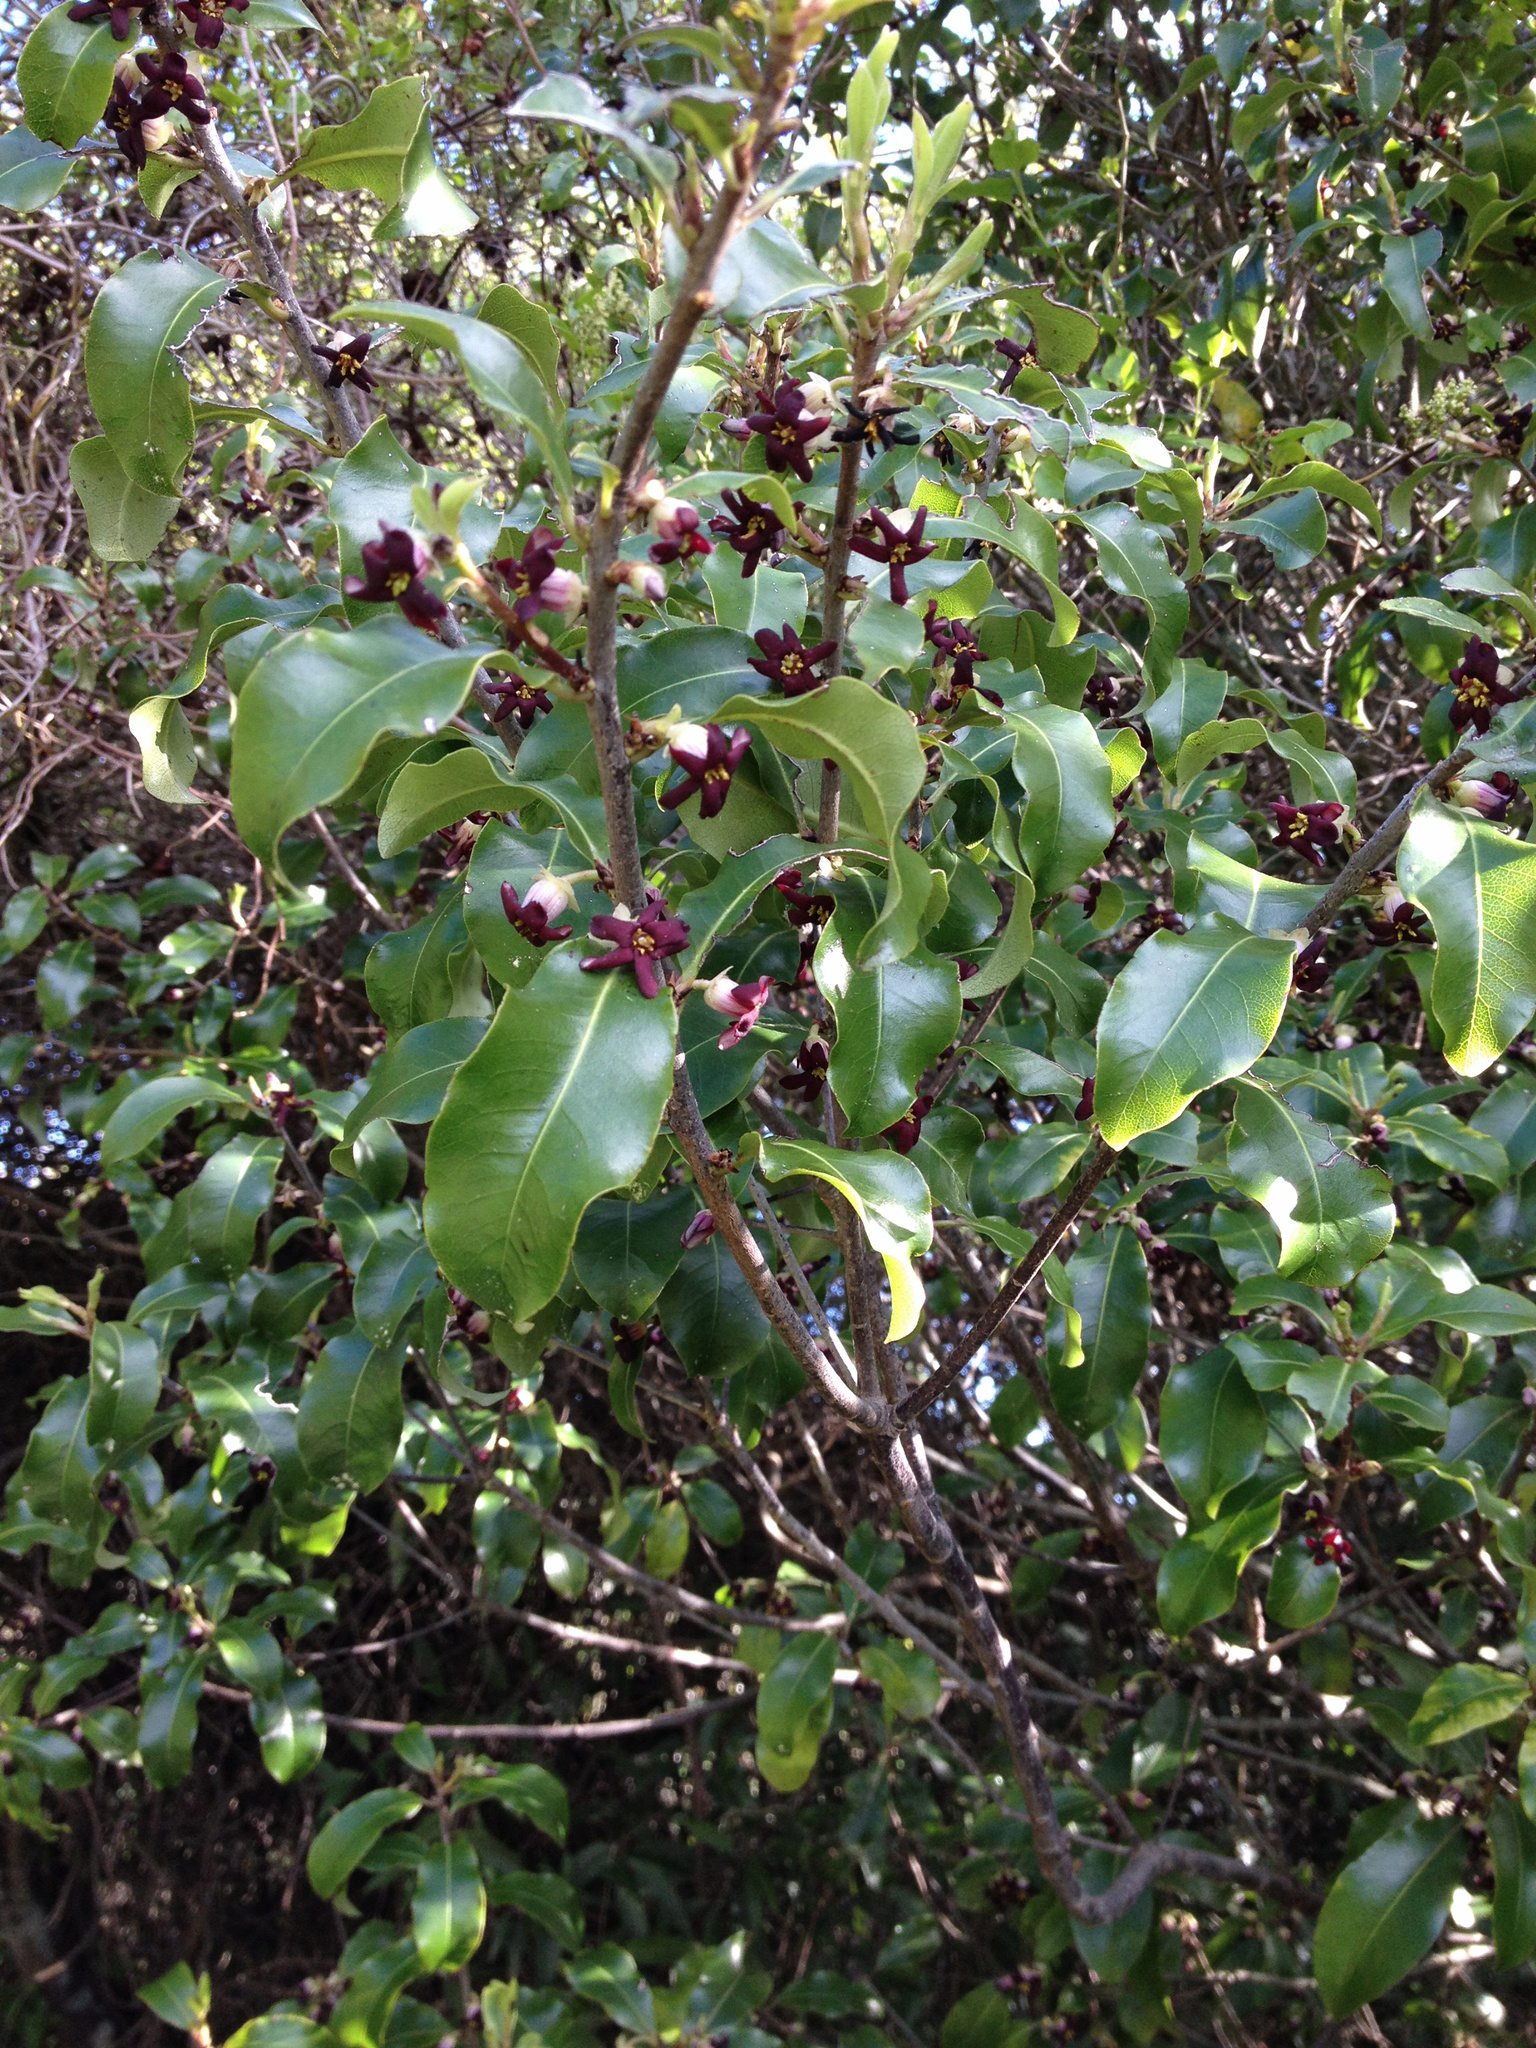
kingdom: Plantae
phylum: Tracheophyta
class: Magnoliopsida
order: Apiales
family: Pittosporaceae
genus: Pittosporum
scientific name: Pittosporum tenuifolium
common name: Kohuhu
